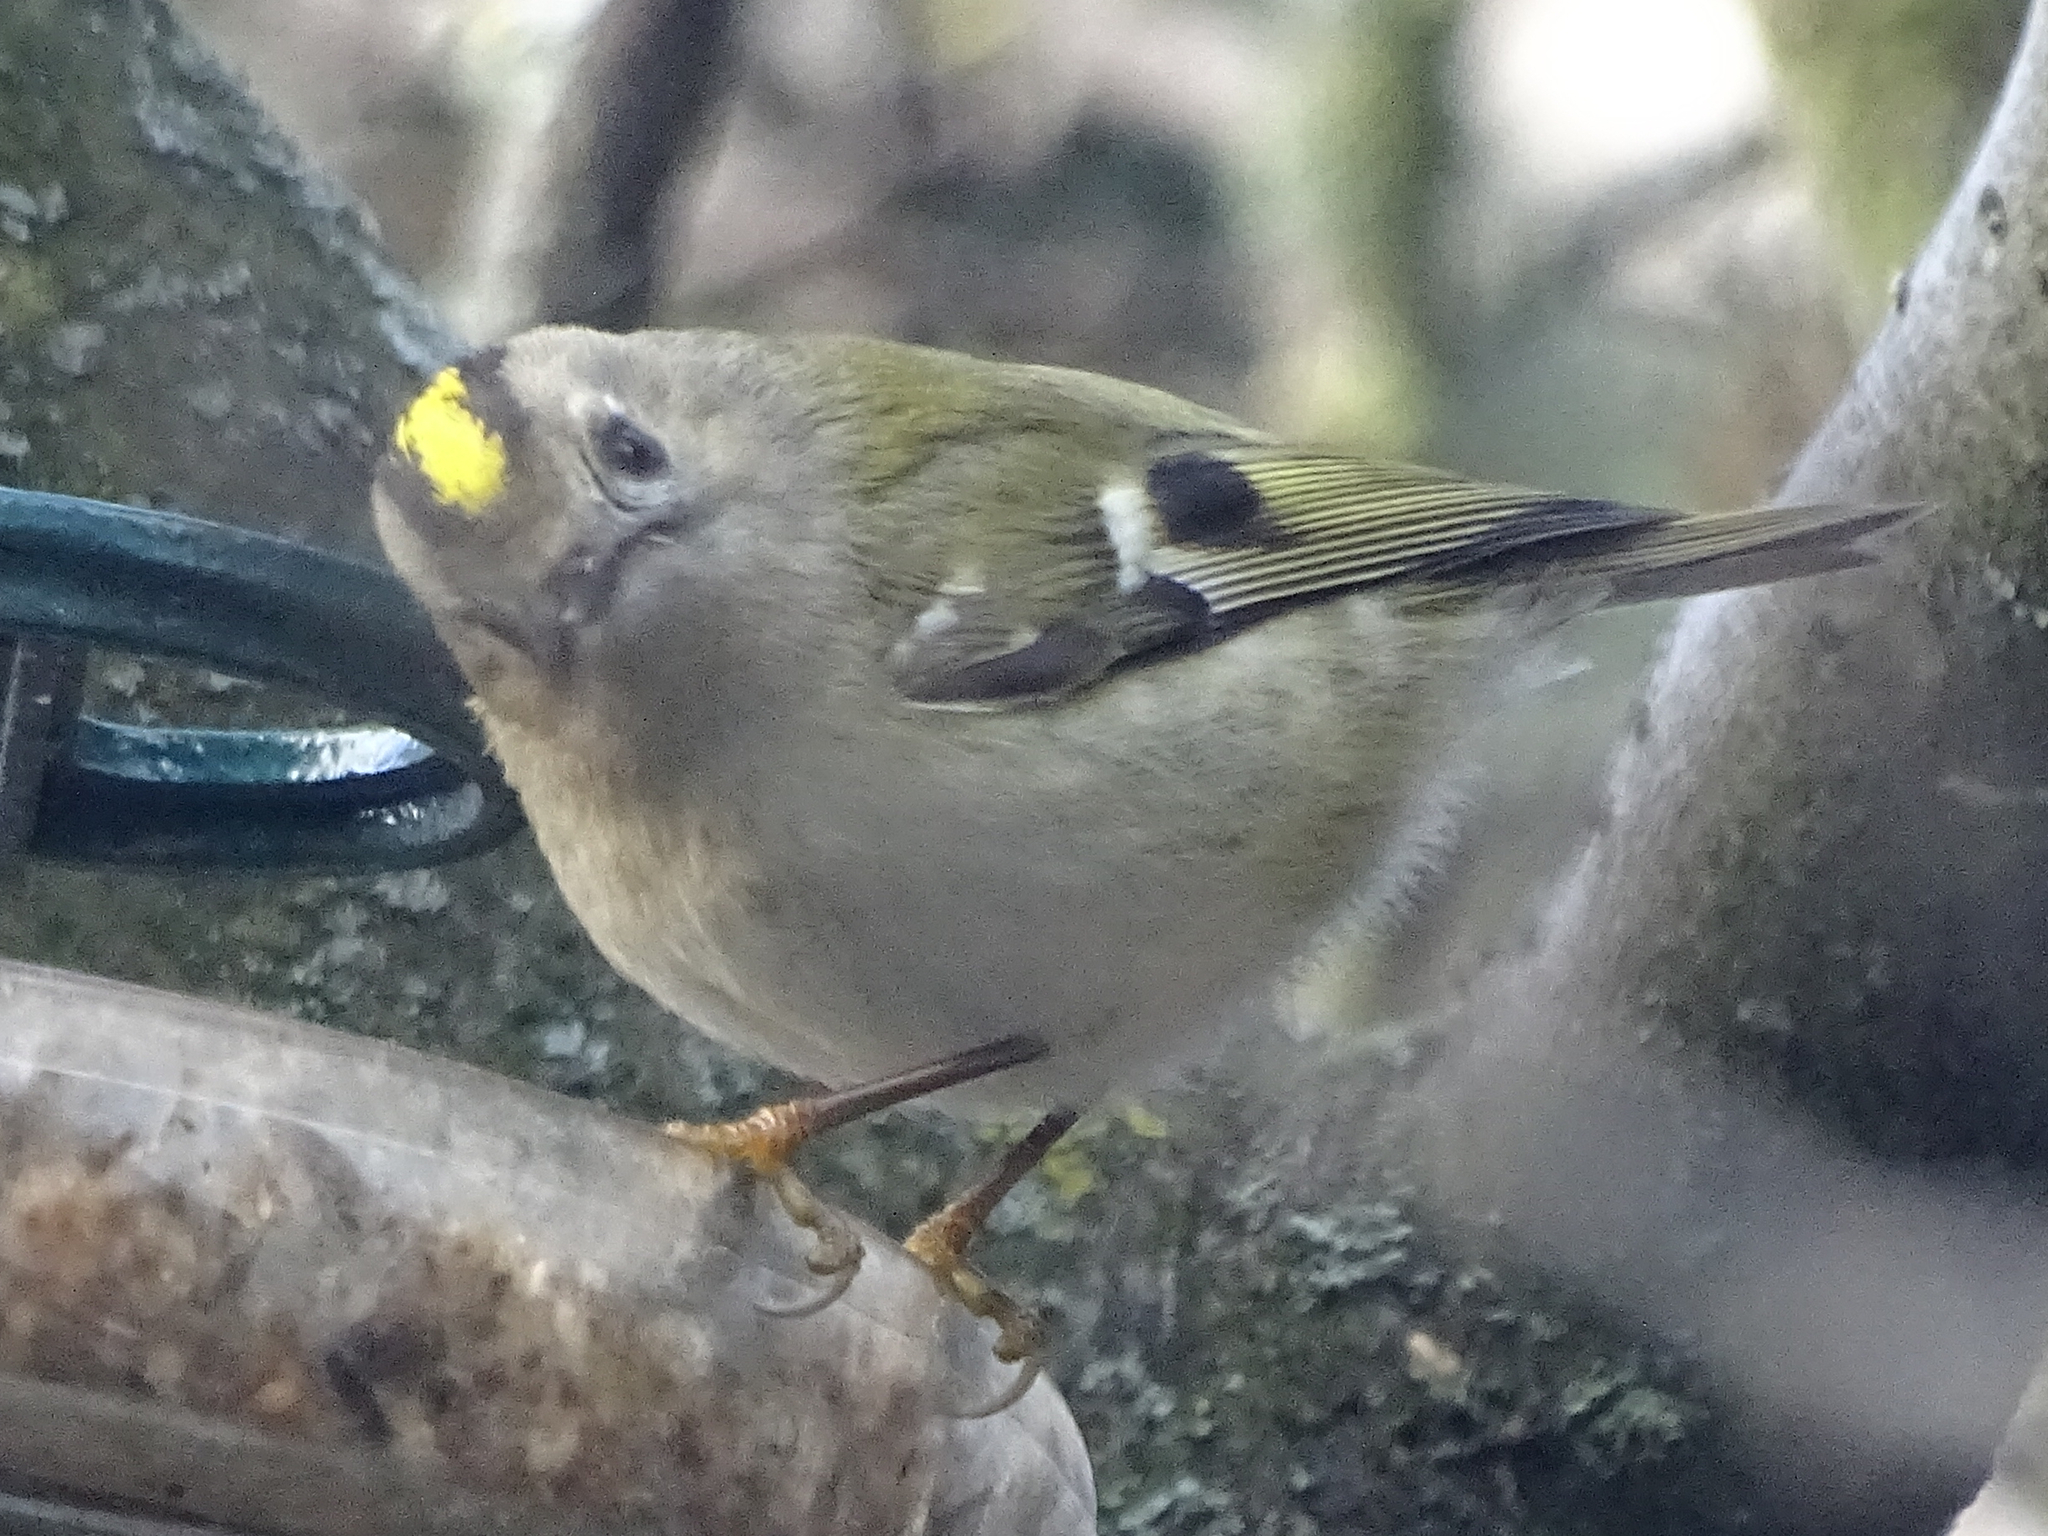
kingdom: Animalia
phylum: Chordata
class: Aves
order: Passeriformes
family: Regulidae
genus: Regulus
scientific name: Regulus regulus
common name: Goldcrest
